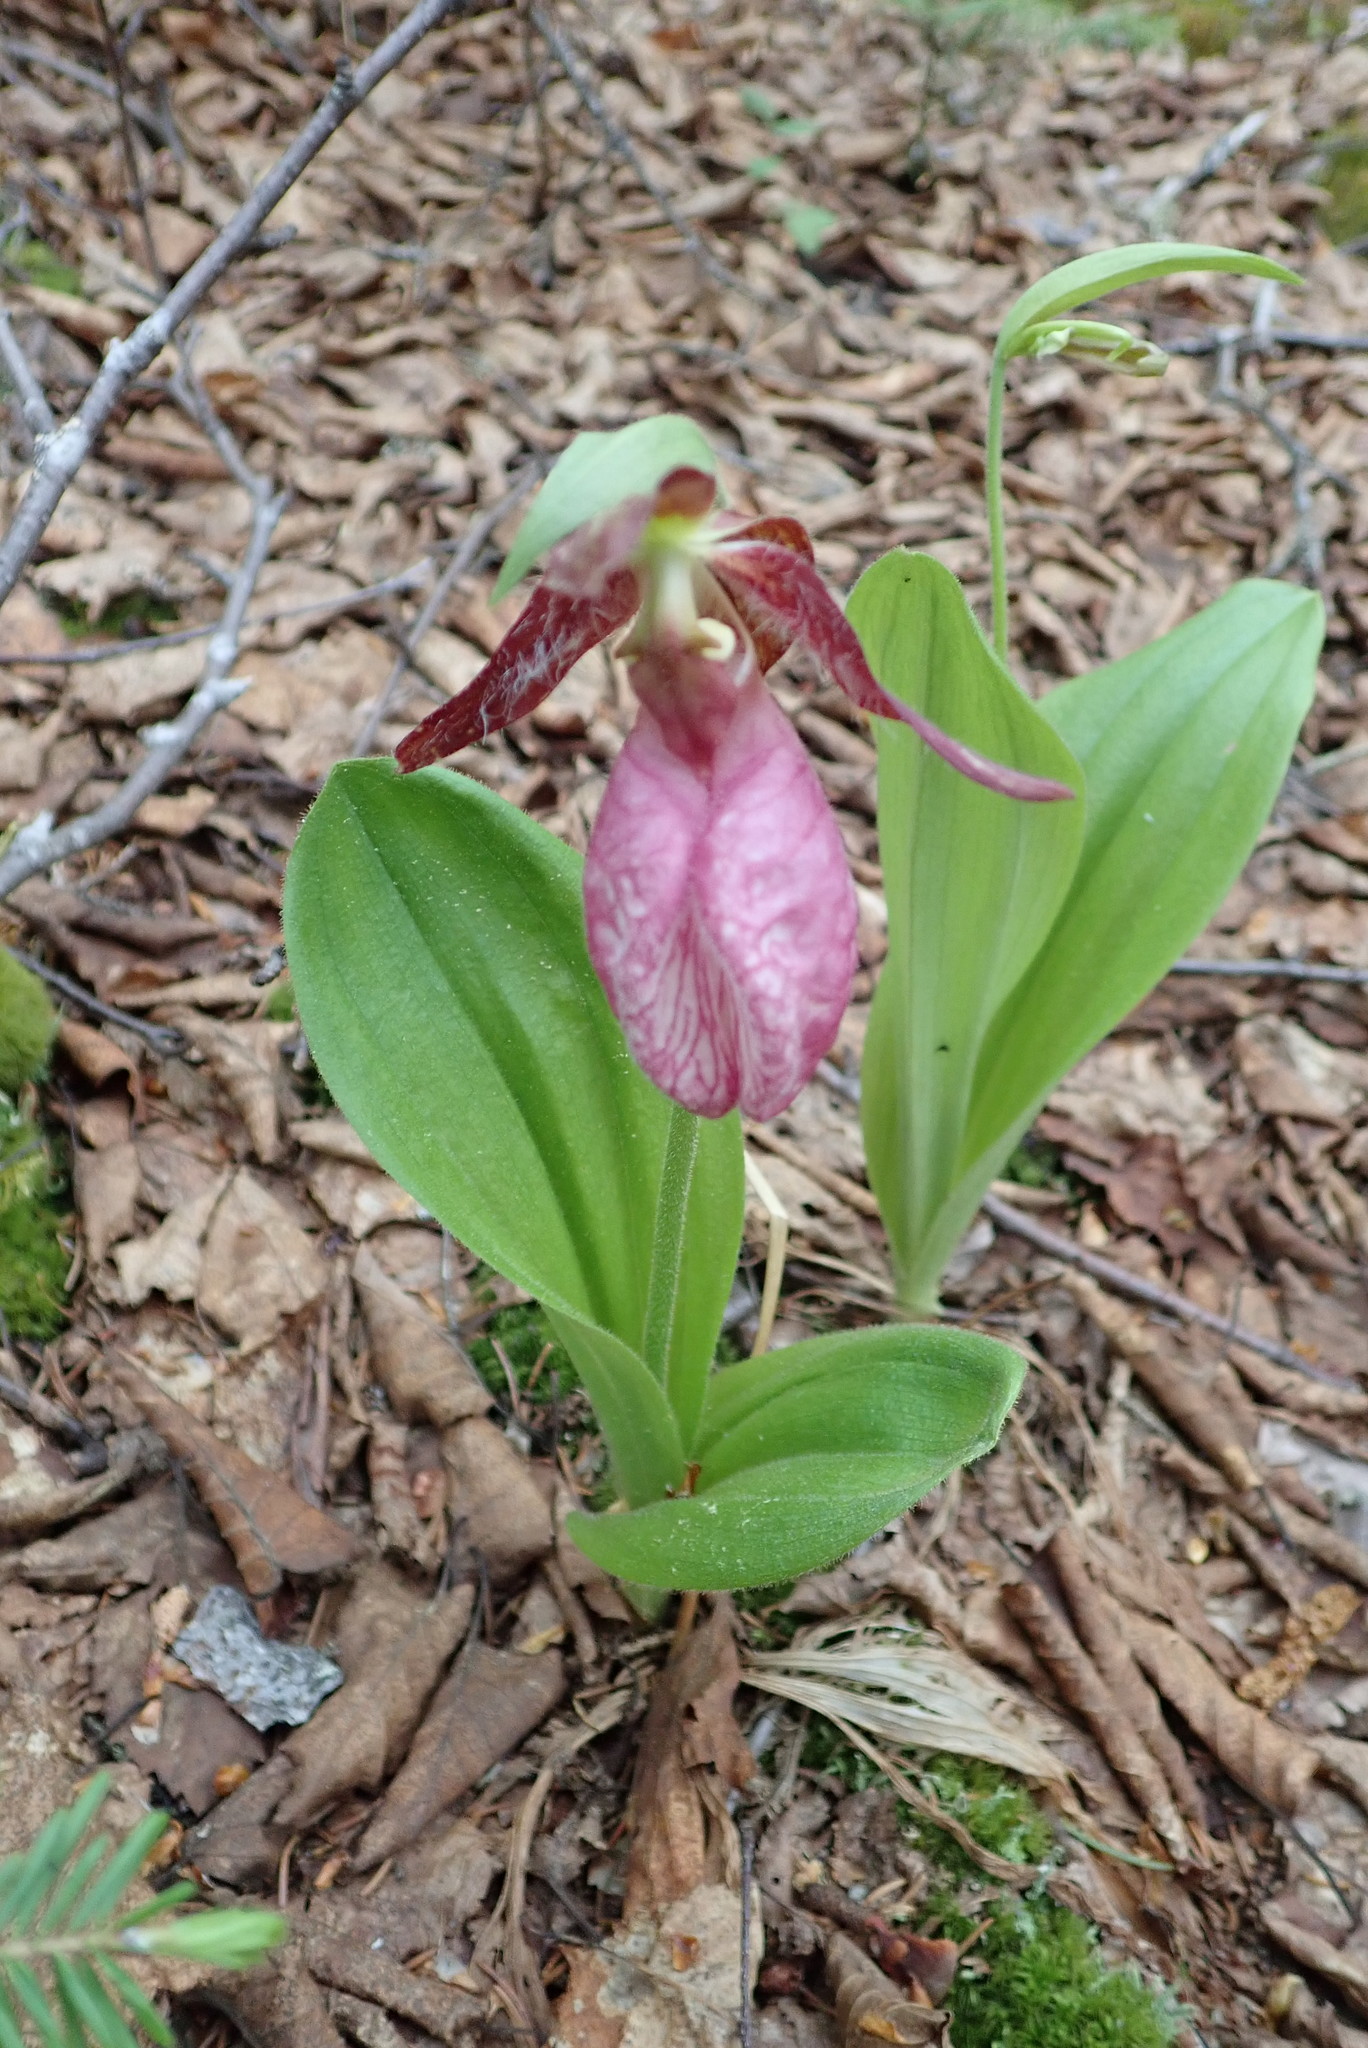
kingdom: Plantae
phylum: Tracheophyta
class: Liliopsida
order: Asparagales
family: Orchidaceae
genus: Cypripedium
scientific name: Cypripedium acaule
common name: Pink lady's-slipper
